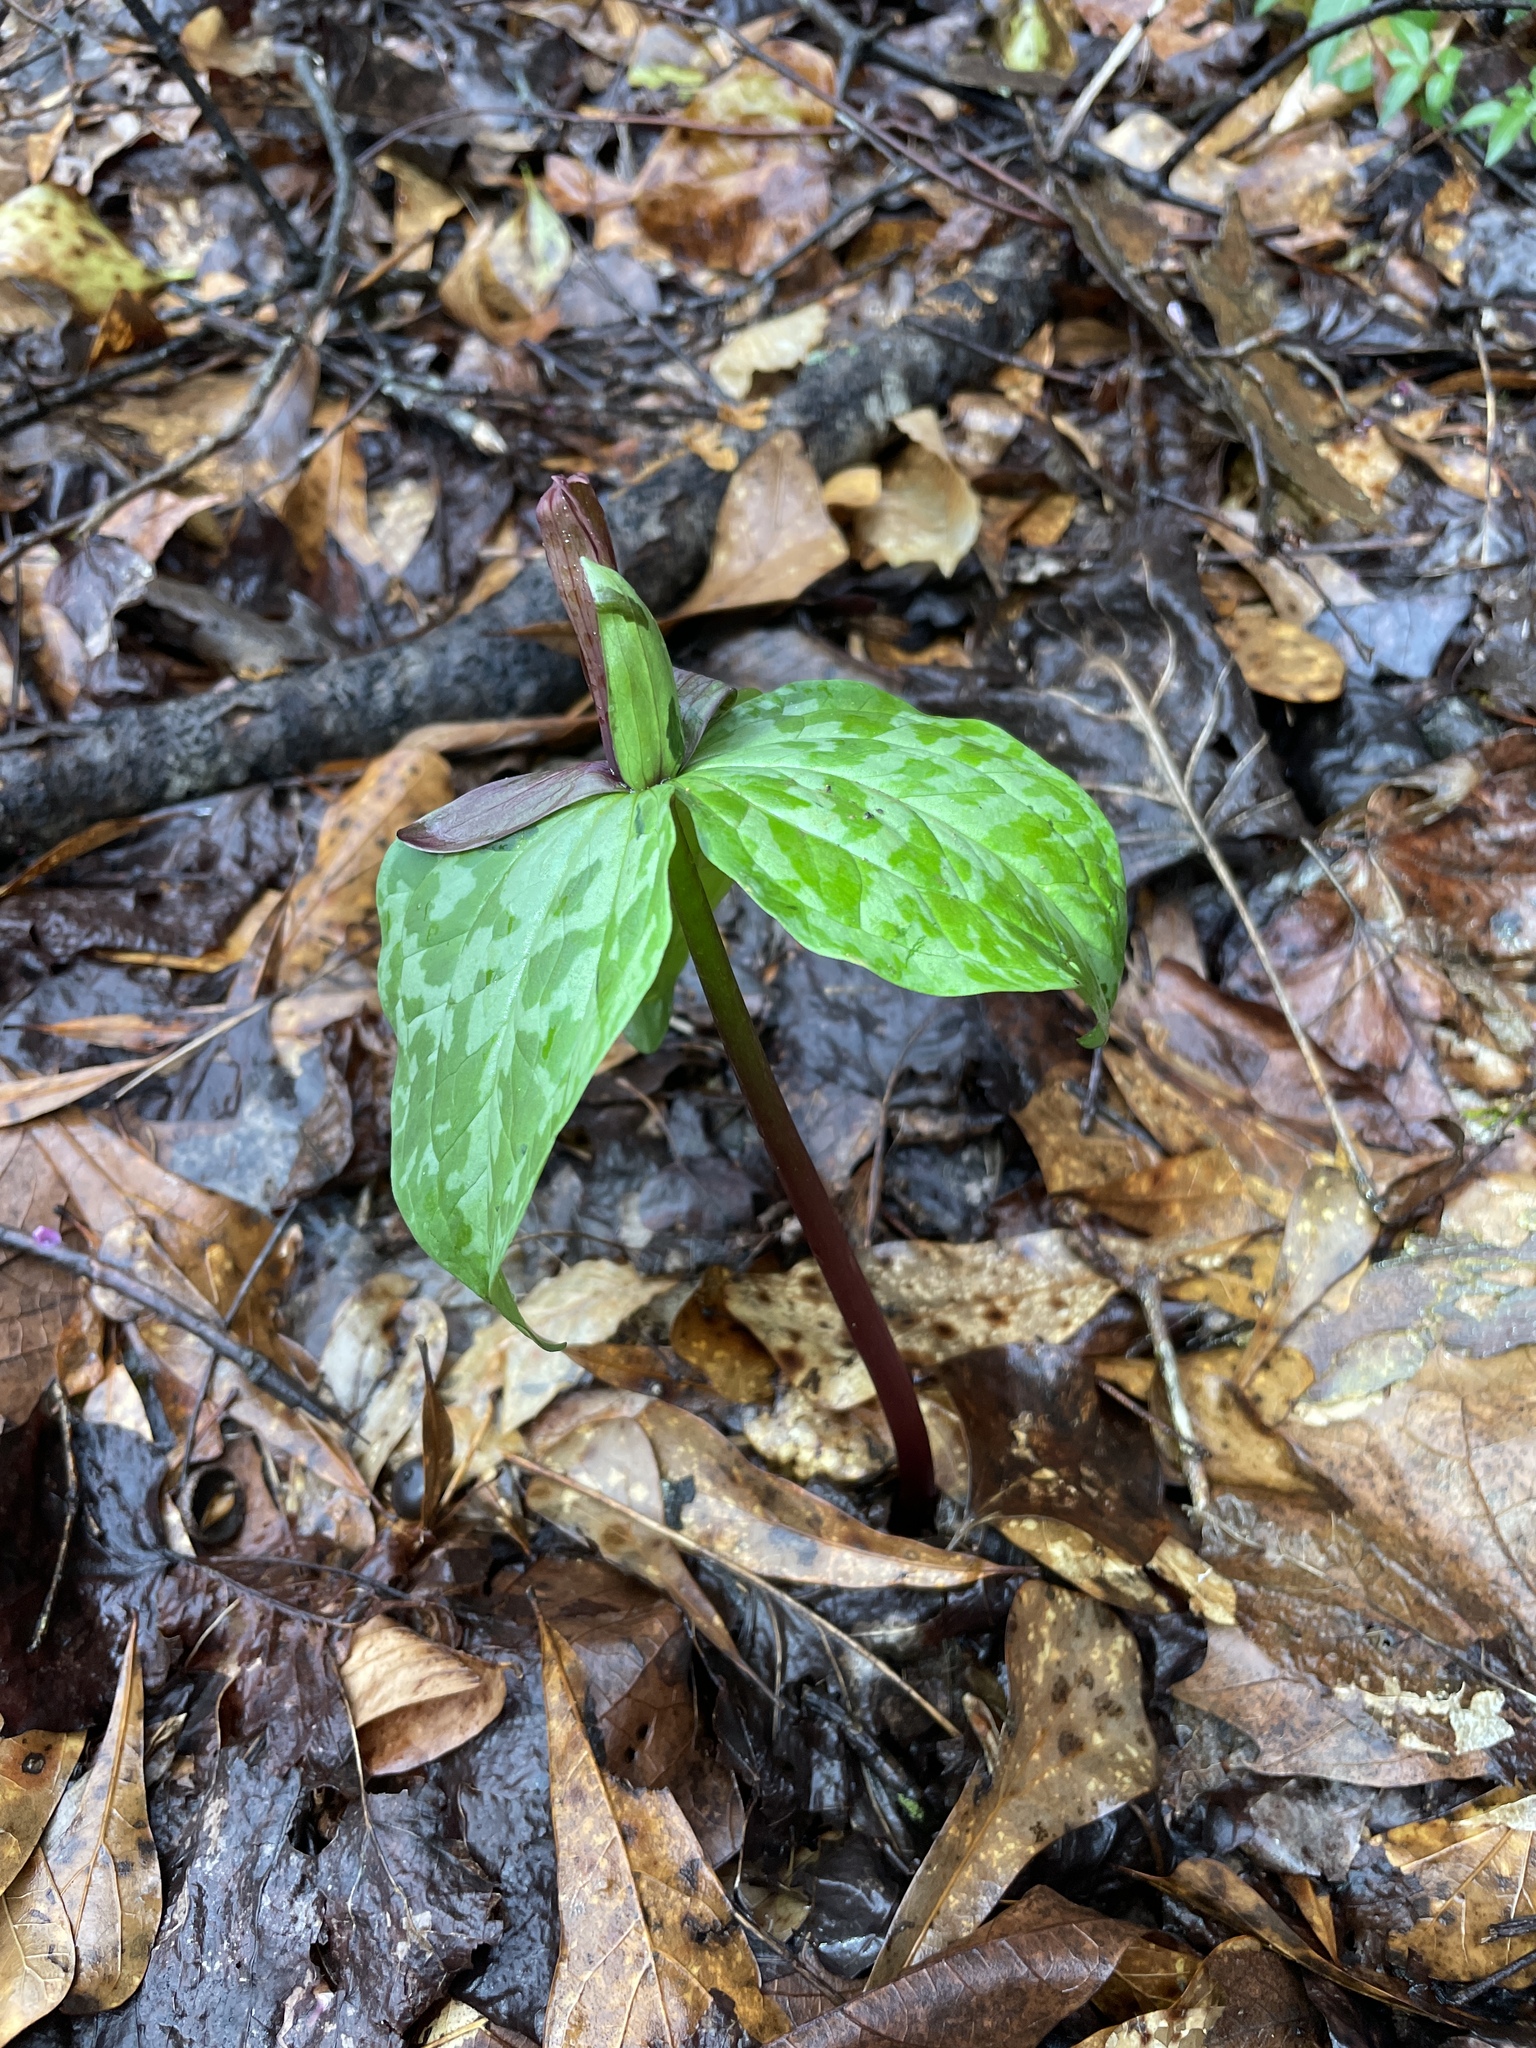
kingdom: Plantae
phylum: Tracheophyta
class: Liliopsida
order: Liliales
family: Melanthiaceae
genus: Trillium
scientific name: Trillium cuneatum
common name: Cuneate trillium
